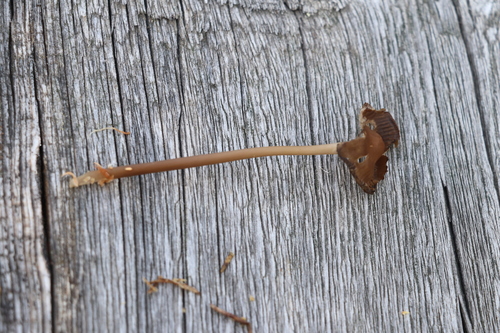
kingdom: Fungi
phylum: Basidiomycota
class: Agaricomycetes
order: Agaricales
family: Mycenaceae
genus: Mycena
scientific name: Mycena megaspora
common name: Rooting bonnet
